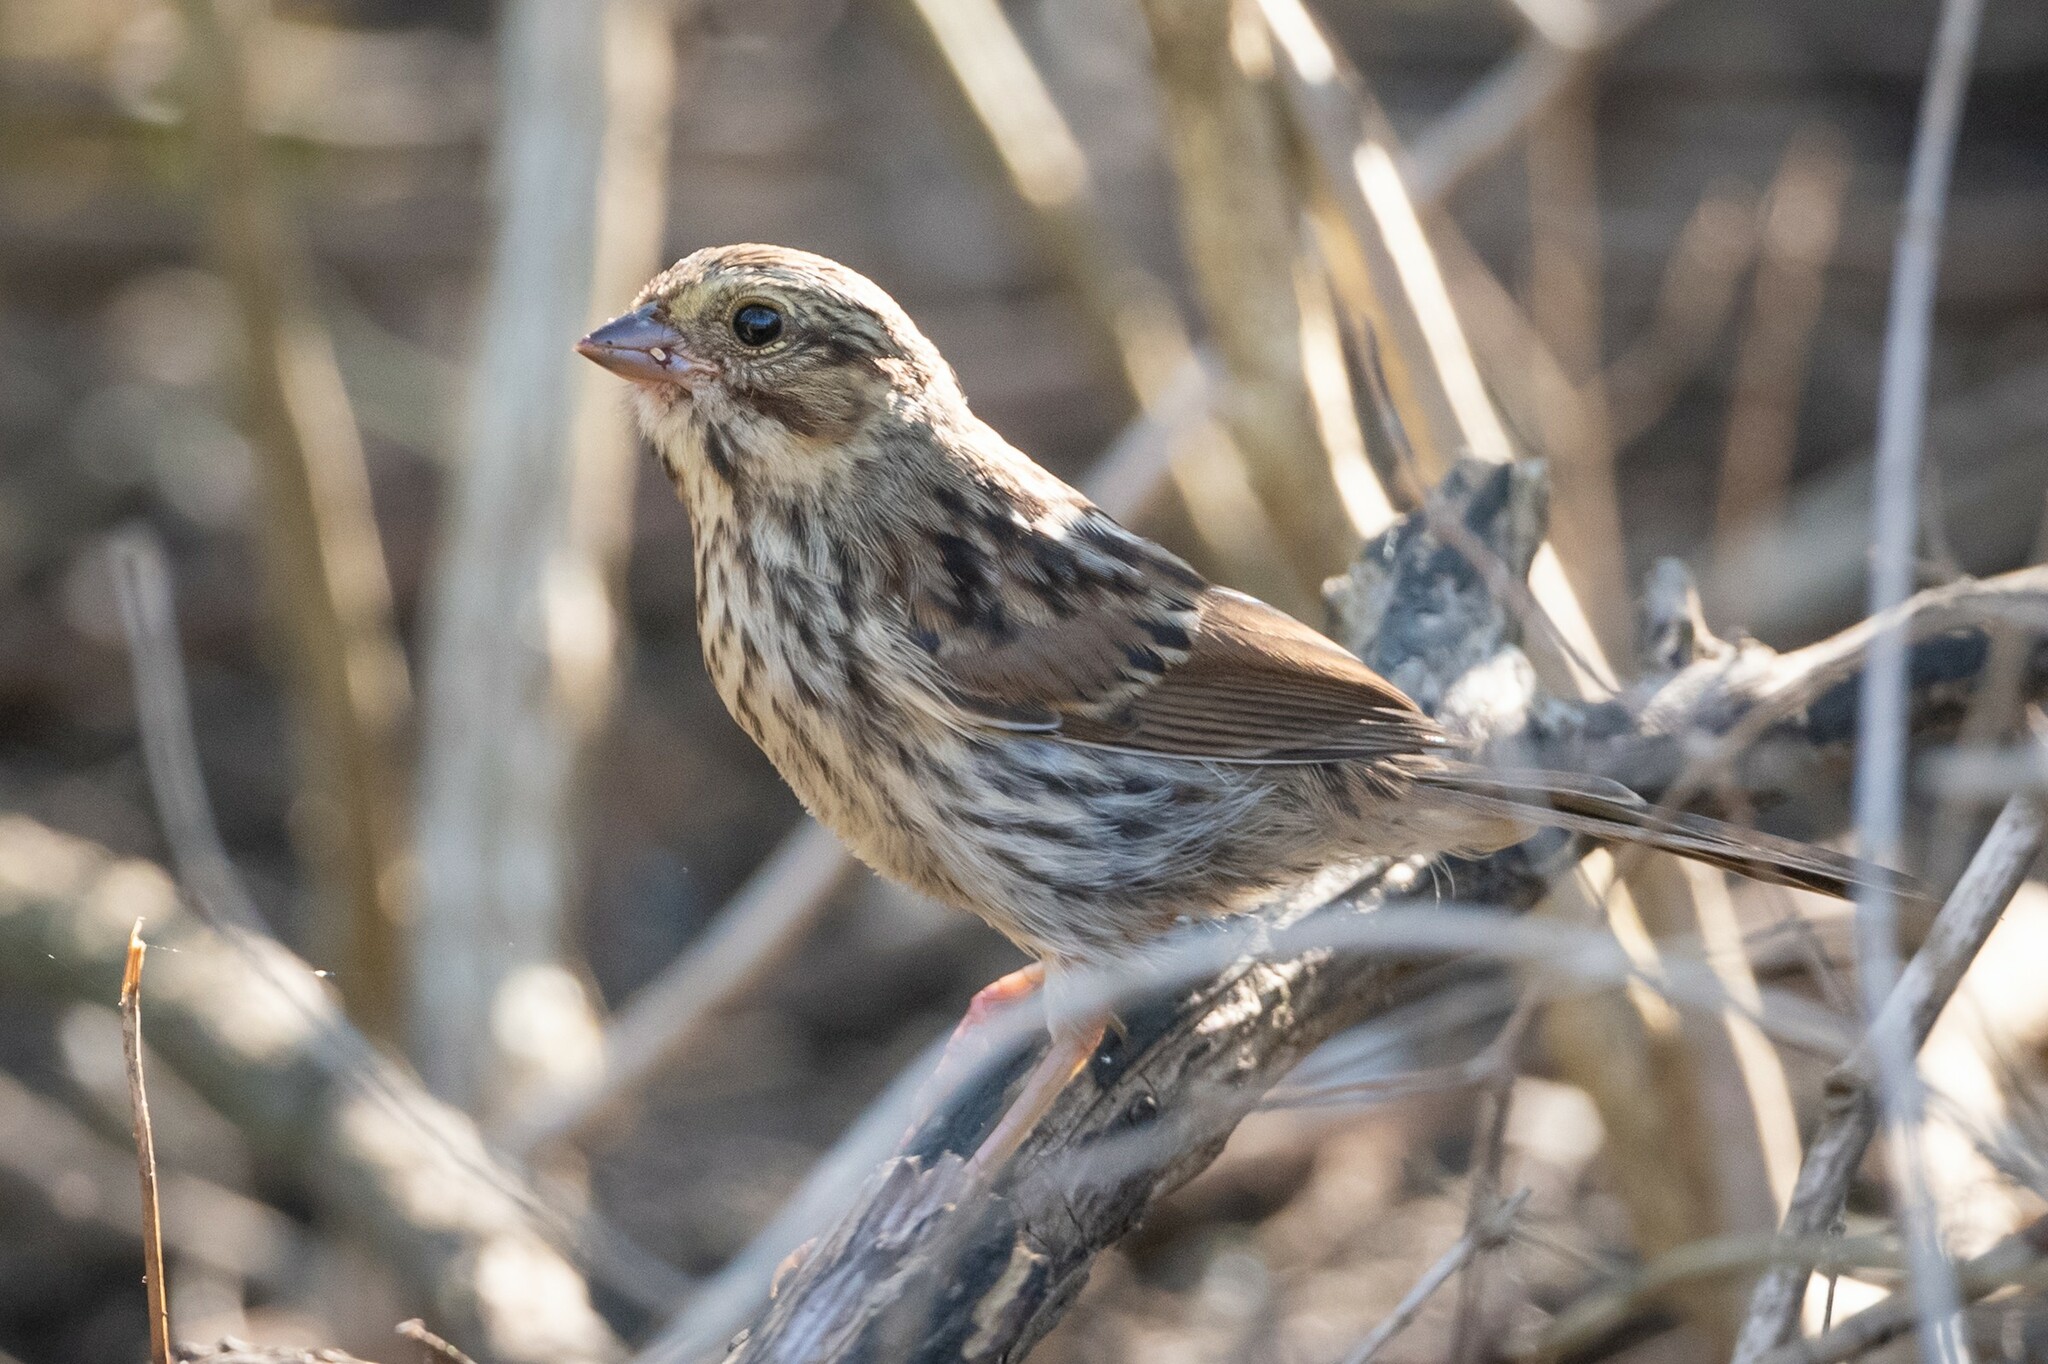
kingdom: Animalia
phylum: Chordata
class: Aves
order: Passeriformes
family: Passerellidae
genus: Passerculus
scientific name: Passerculus sandwichensis
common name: Savannah sparrow
